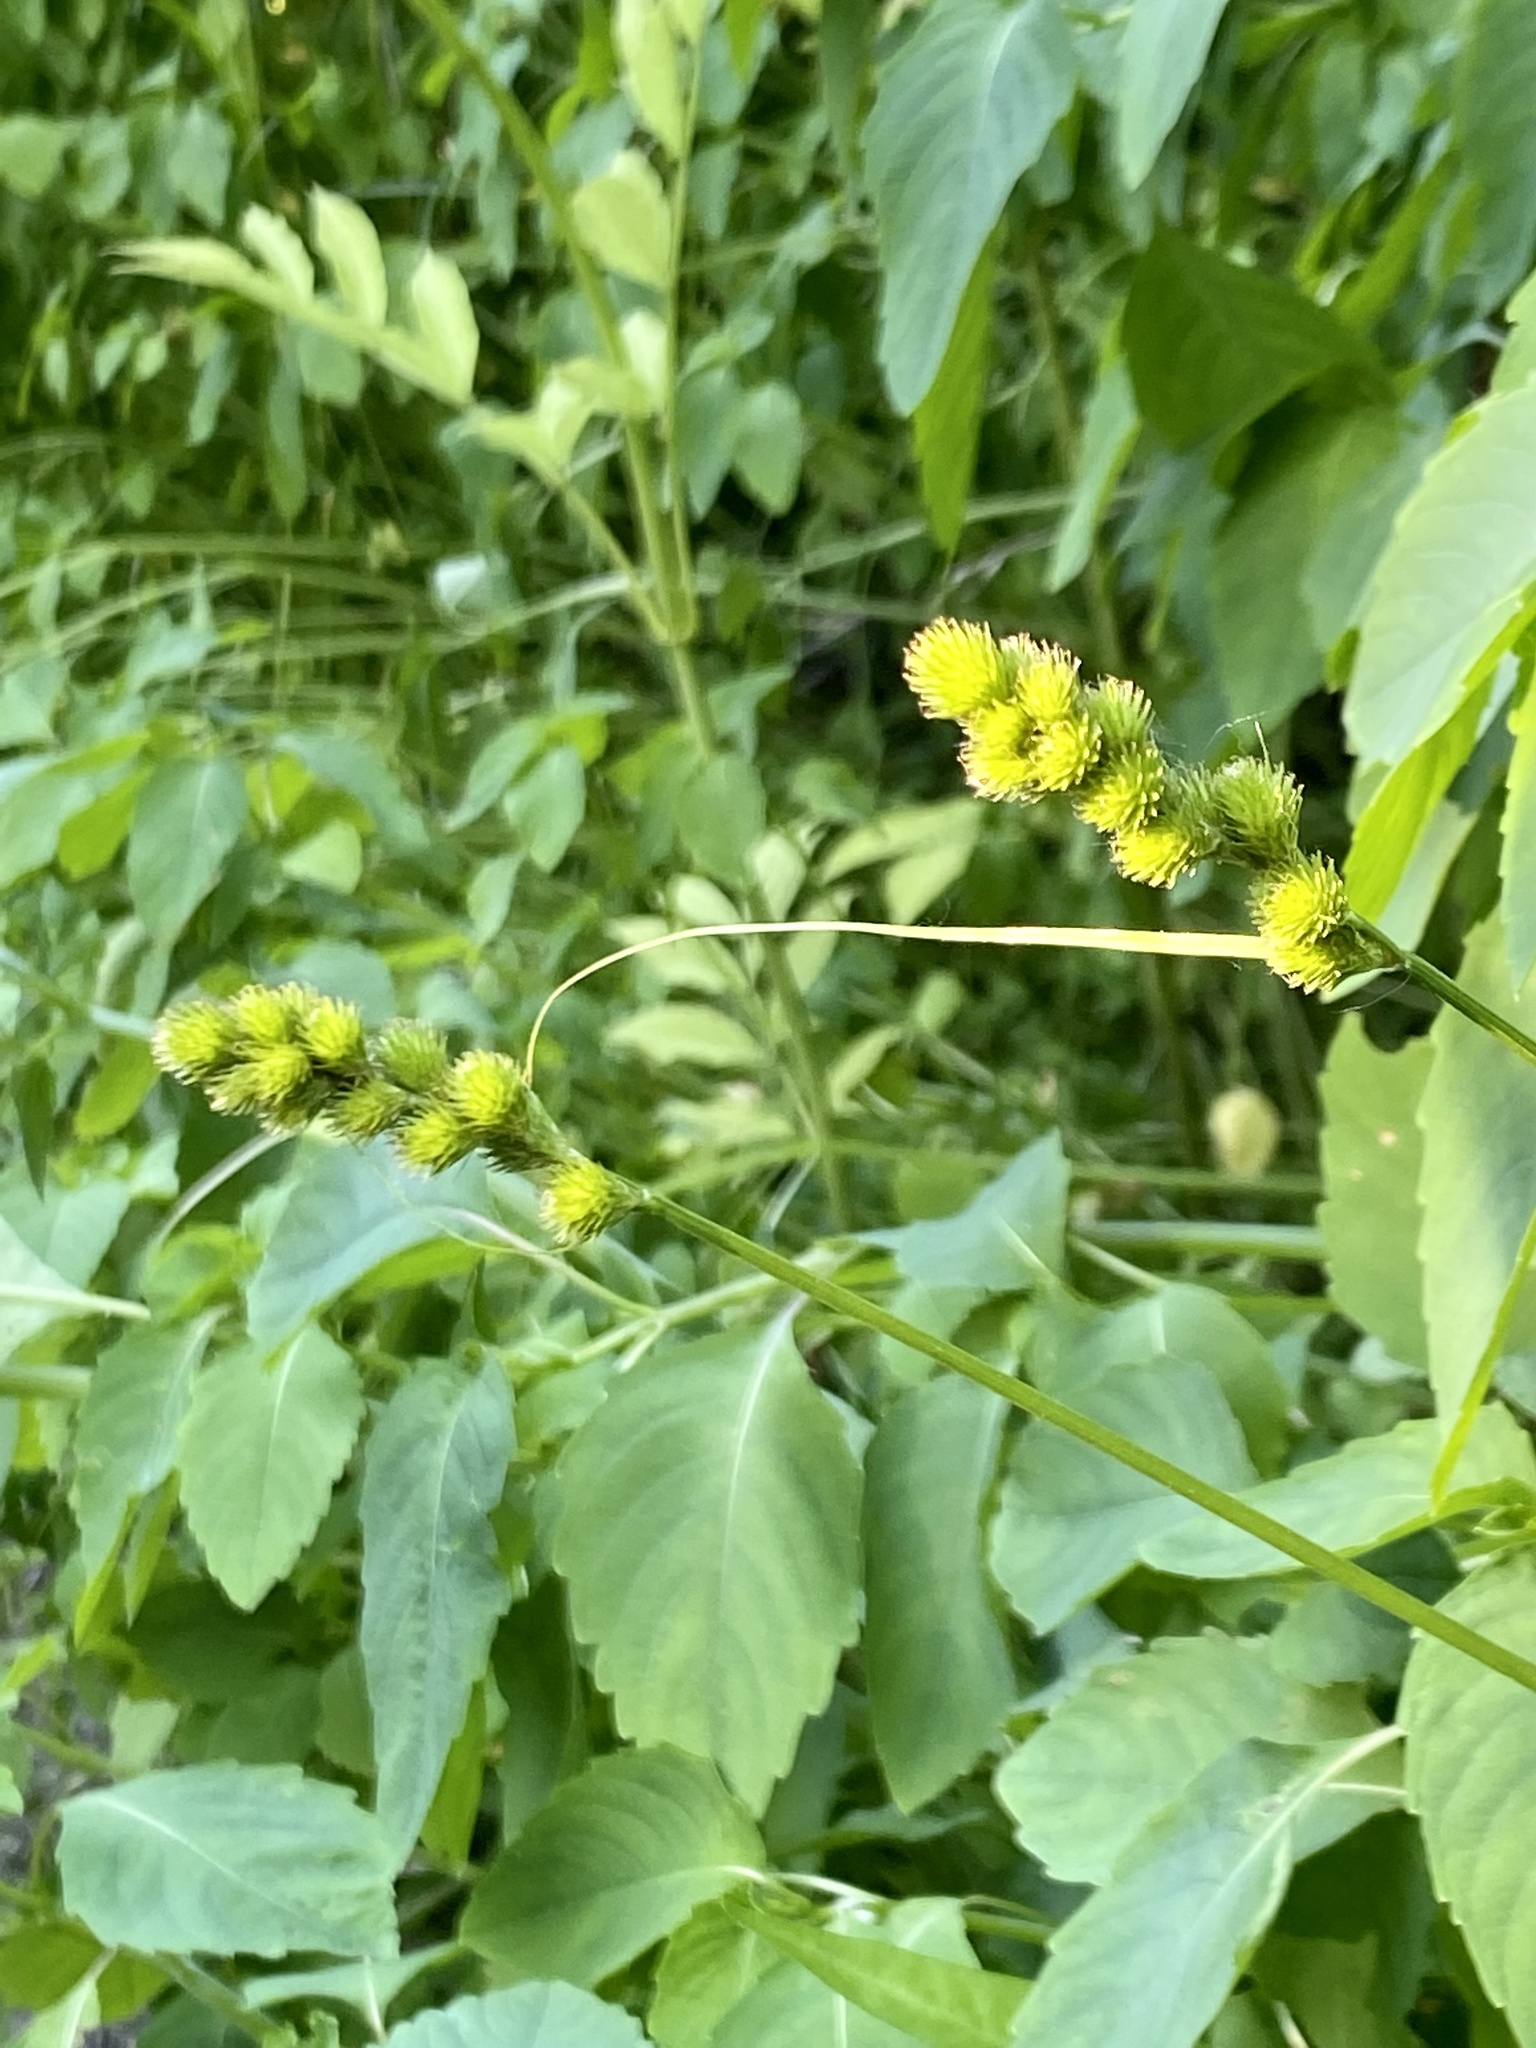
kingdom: Plantae
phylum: Tracheophyta
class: Liliopsida
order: Poales
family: Cyperaceae
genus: Carex
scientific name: Carex tribuloides
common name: Blunt broom sedge
